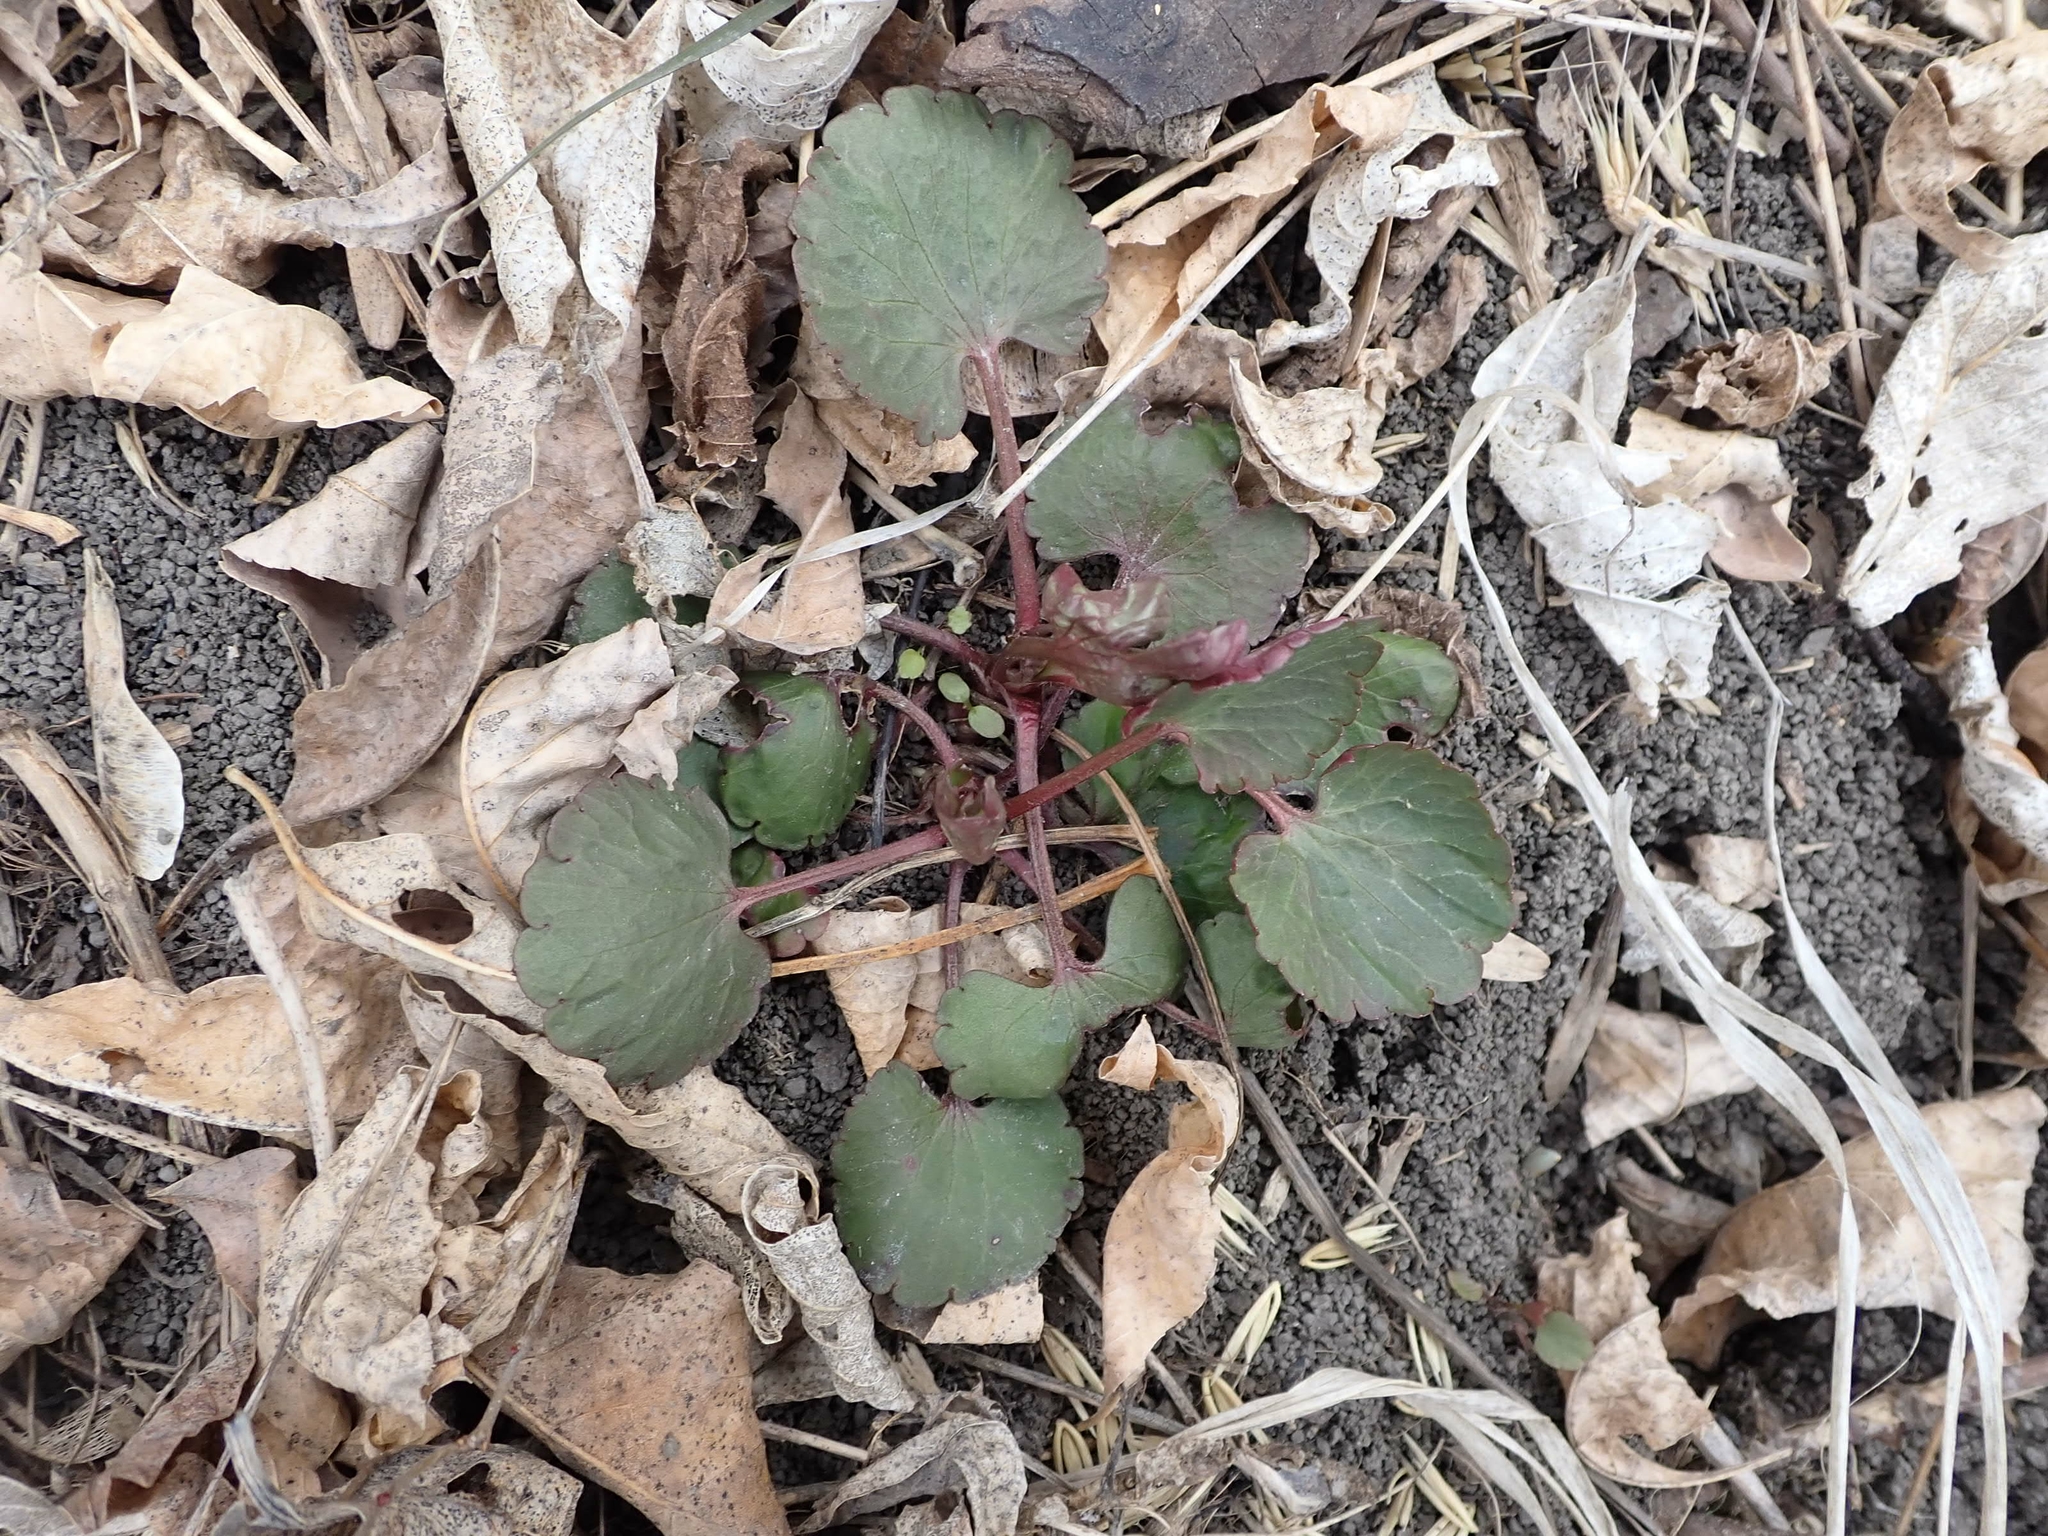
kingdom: Plantae
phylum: Tracheophyta
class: Magnoliopsida
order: Ranunculales
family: Ranunculaceae
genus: Ranunculus
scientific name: Ranunculus abortivus
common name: Early wood buttercup
